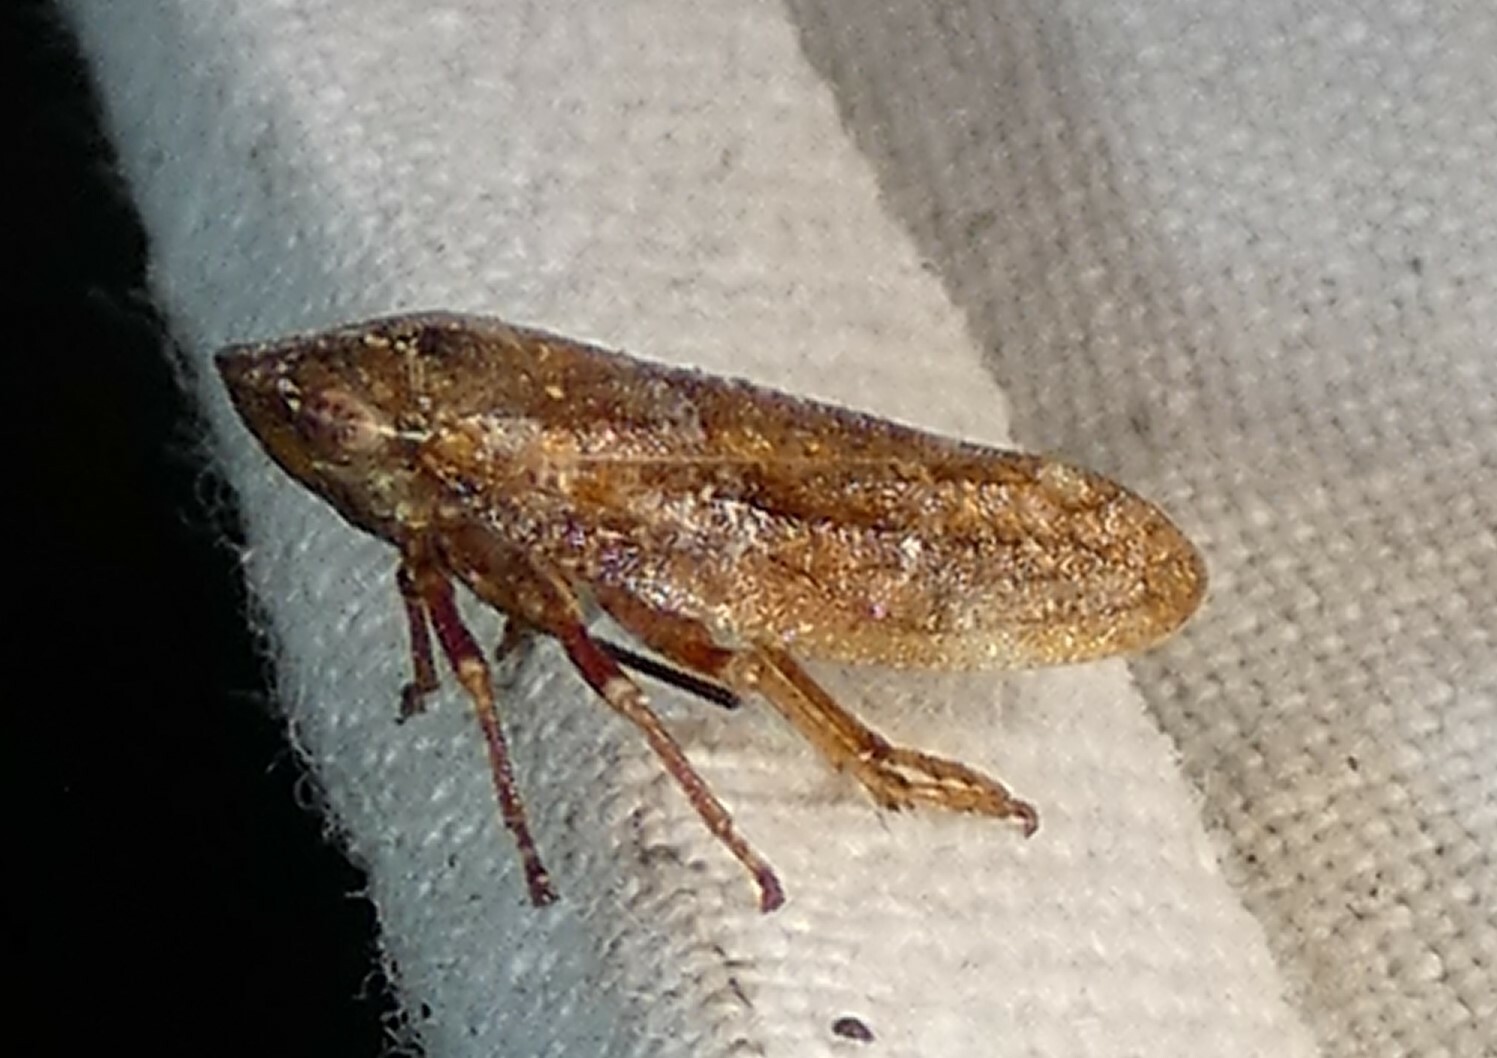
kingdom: Animalia
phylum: Arthropoda
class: Insecta
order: Hemiptera
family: Aphrophoridae
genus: Aphrophora
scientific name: Aphrophora saratogensis
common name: Saratoga spittlebug
